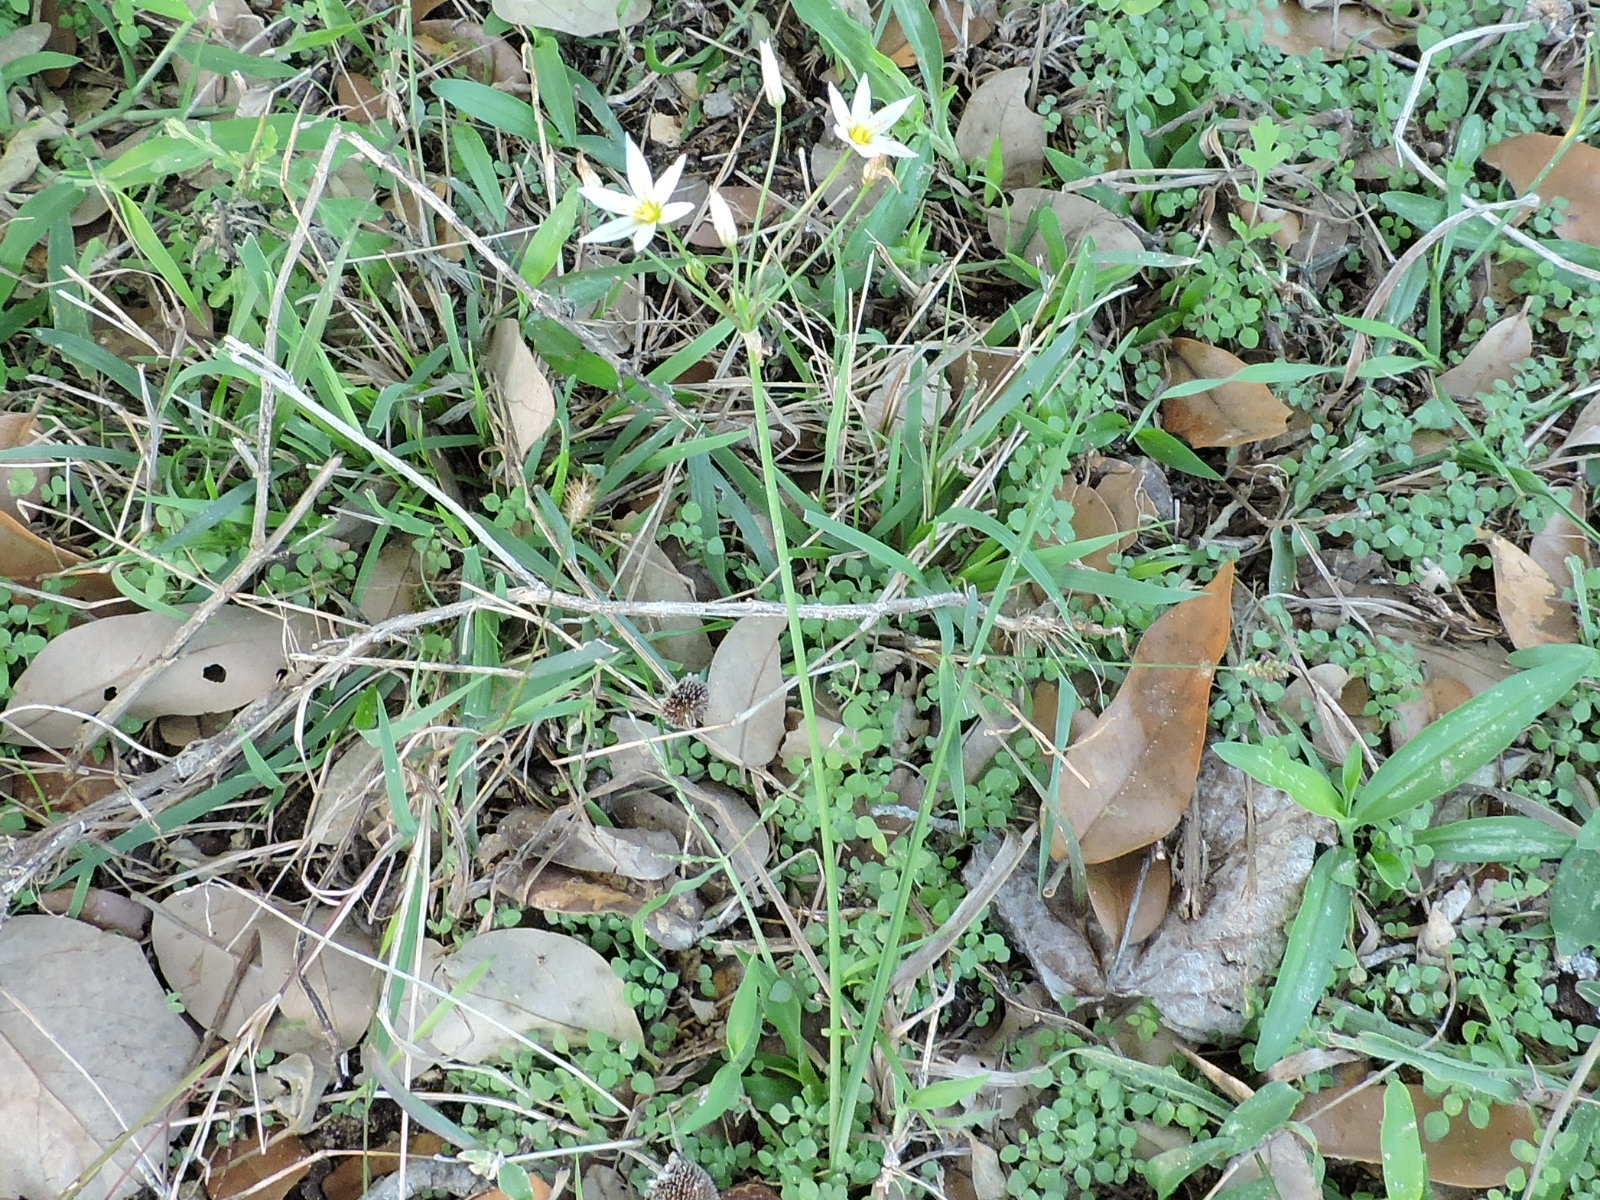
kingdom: Plantae
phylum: Tracheophyta
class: Liliopsida
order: Asparagales
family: Amaryllidaceae
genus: Nothoscordum
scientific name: Nothoscordum bivalve
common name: Crow-poison
